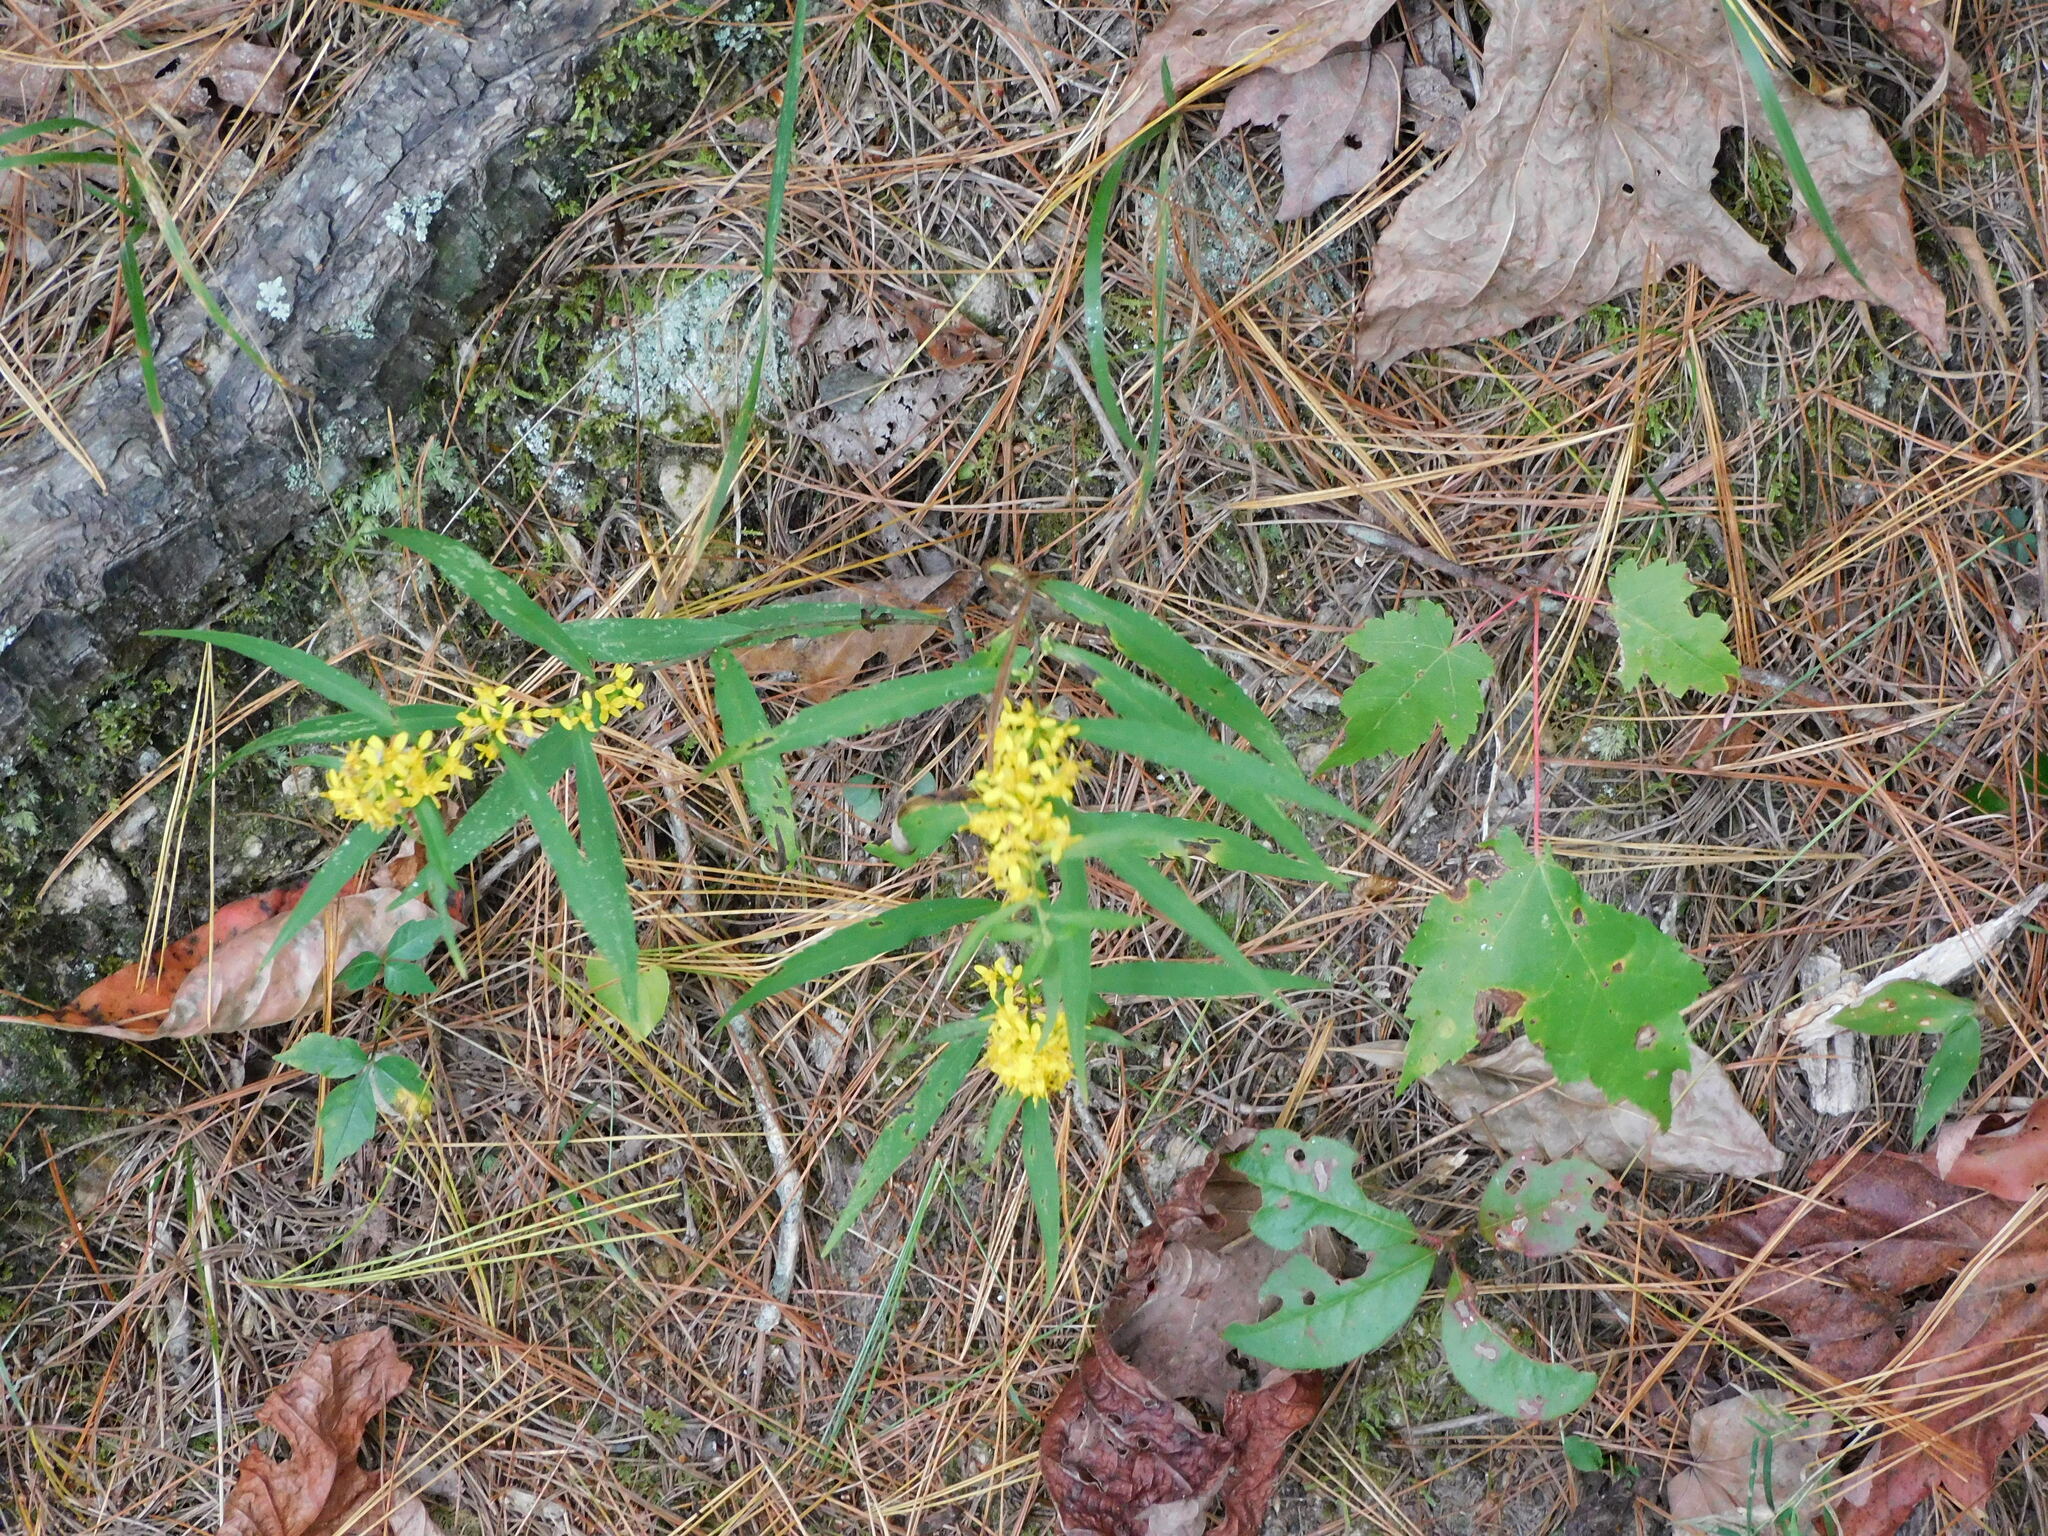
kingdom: Plantae
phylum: Tracheophyta
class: Magnoliopsida
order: Asterales
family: Asteraceae
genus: Solidago
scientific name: Solidago caesia
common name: Woodland goldenrod
